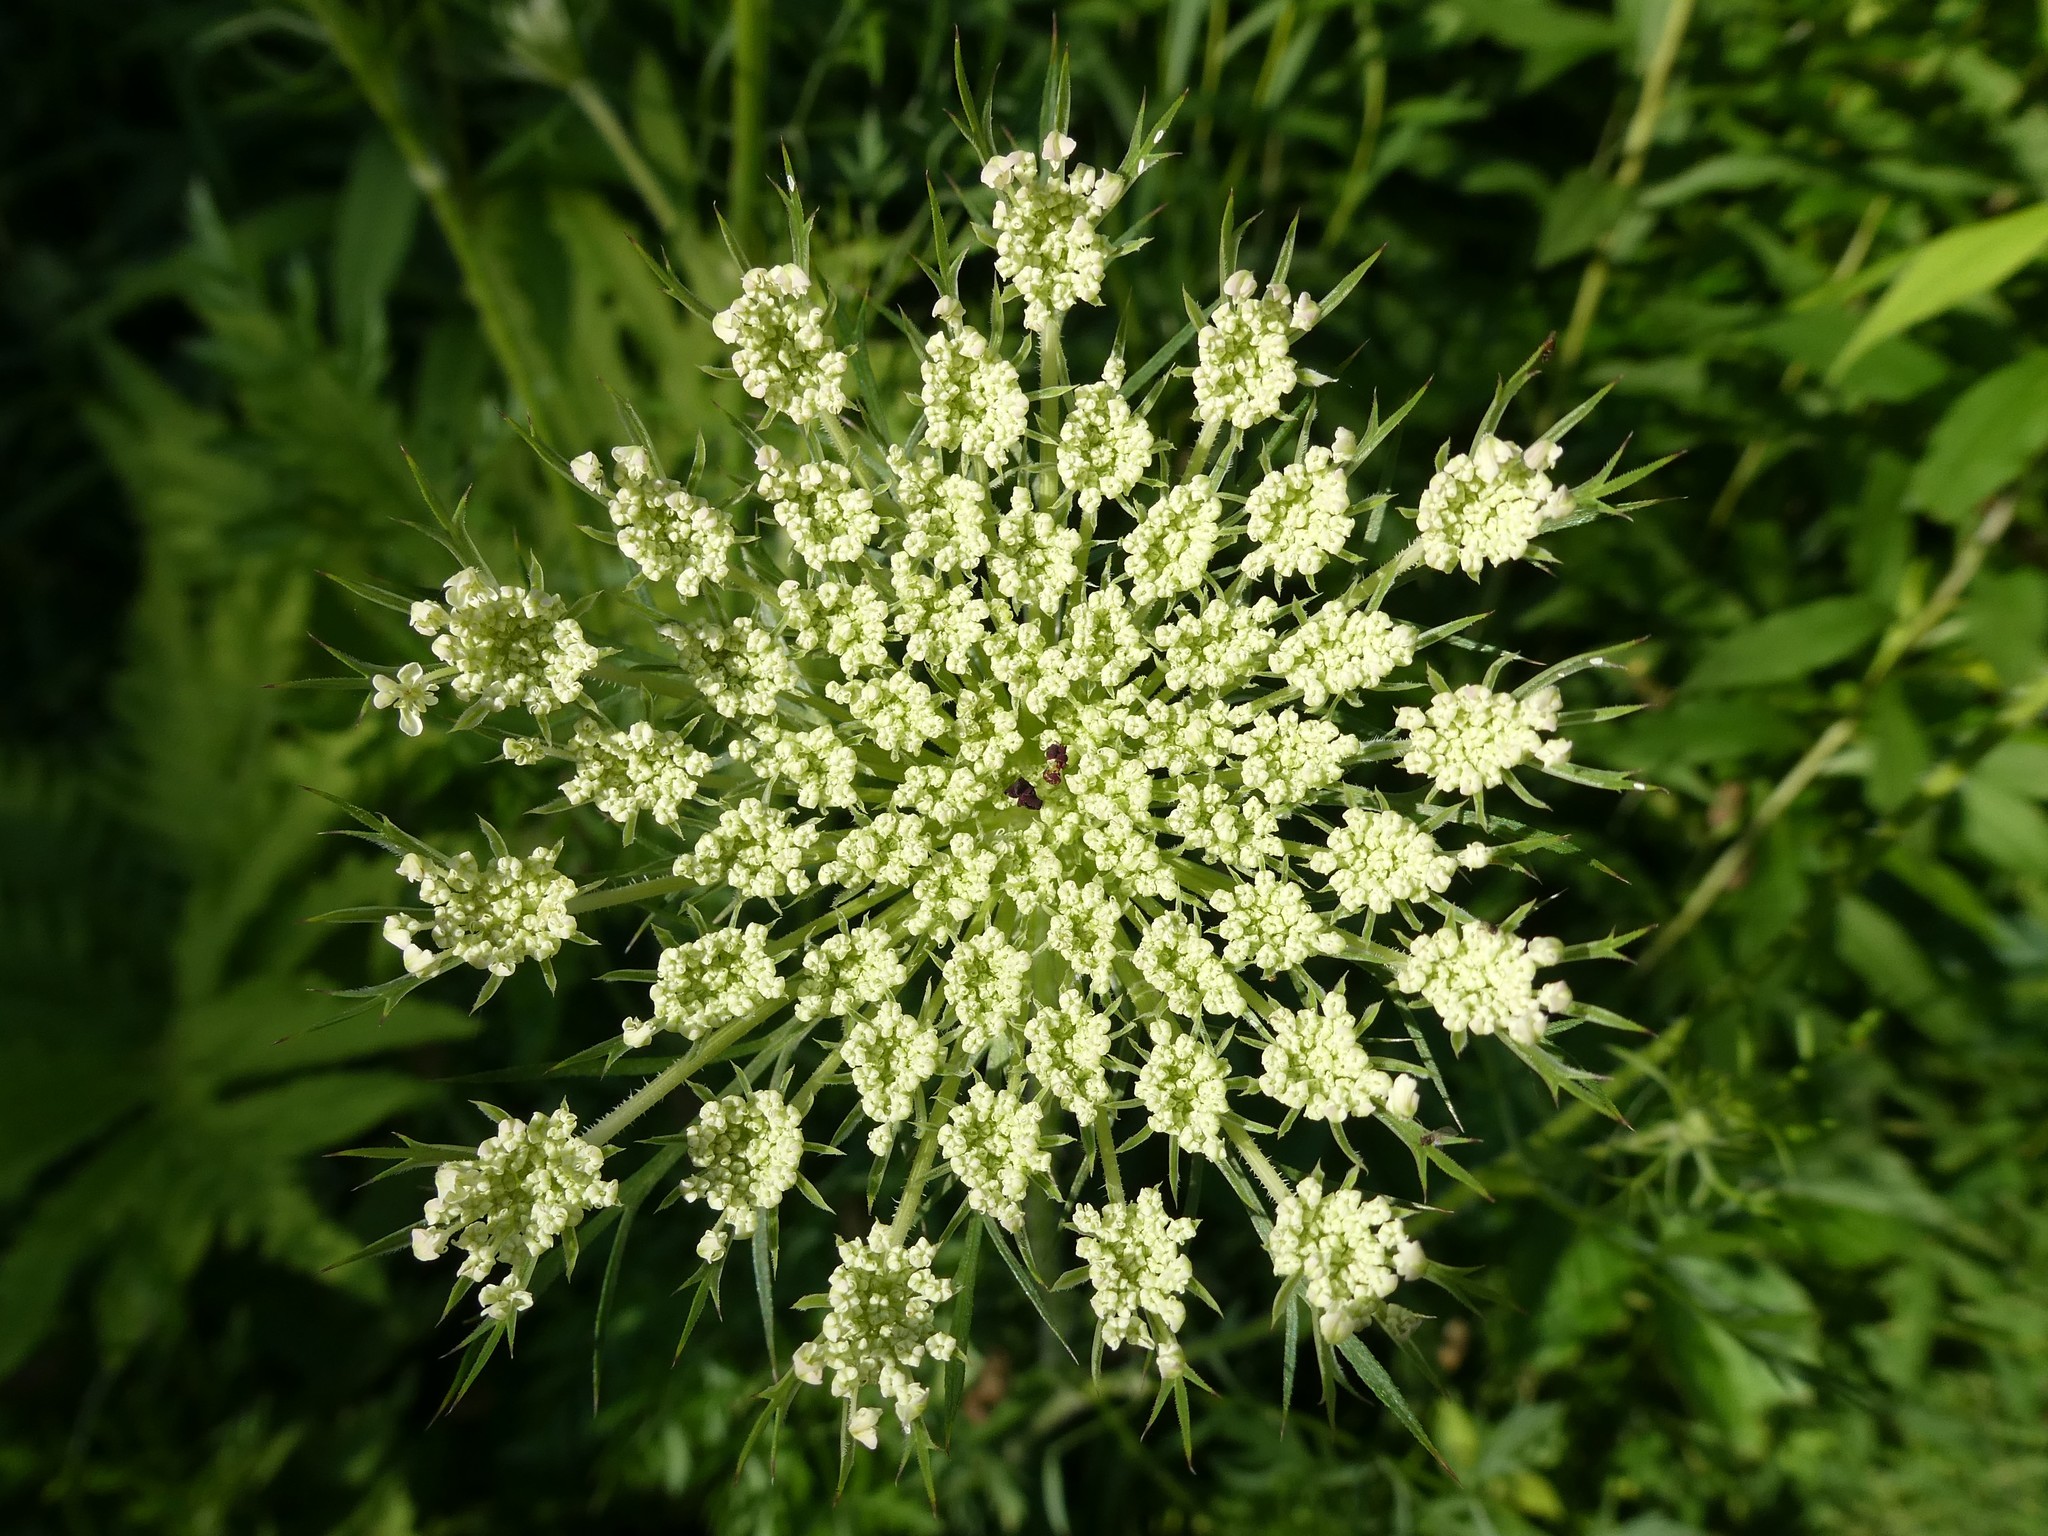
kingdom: Plantae
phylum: Tracheophyta
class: Magnoliopsida
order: Apiales
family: Apiaceae
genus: Daucus
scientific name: Daucus carota
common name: Wild carrot
